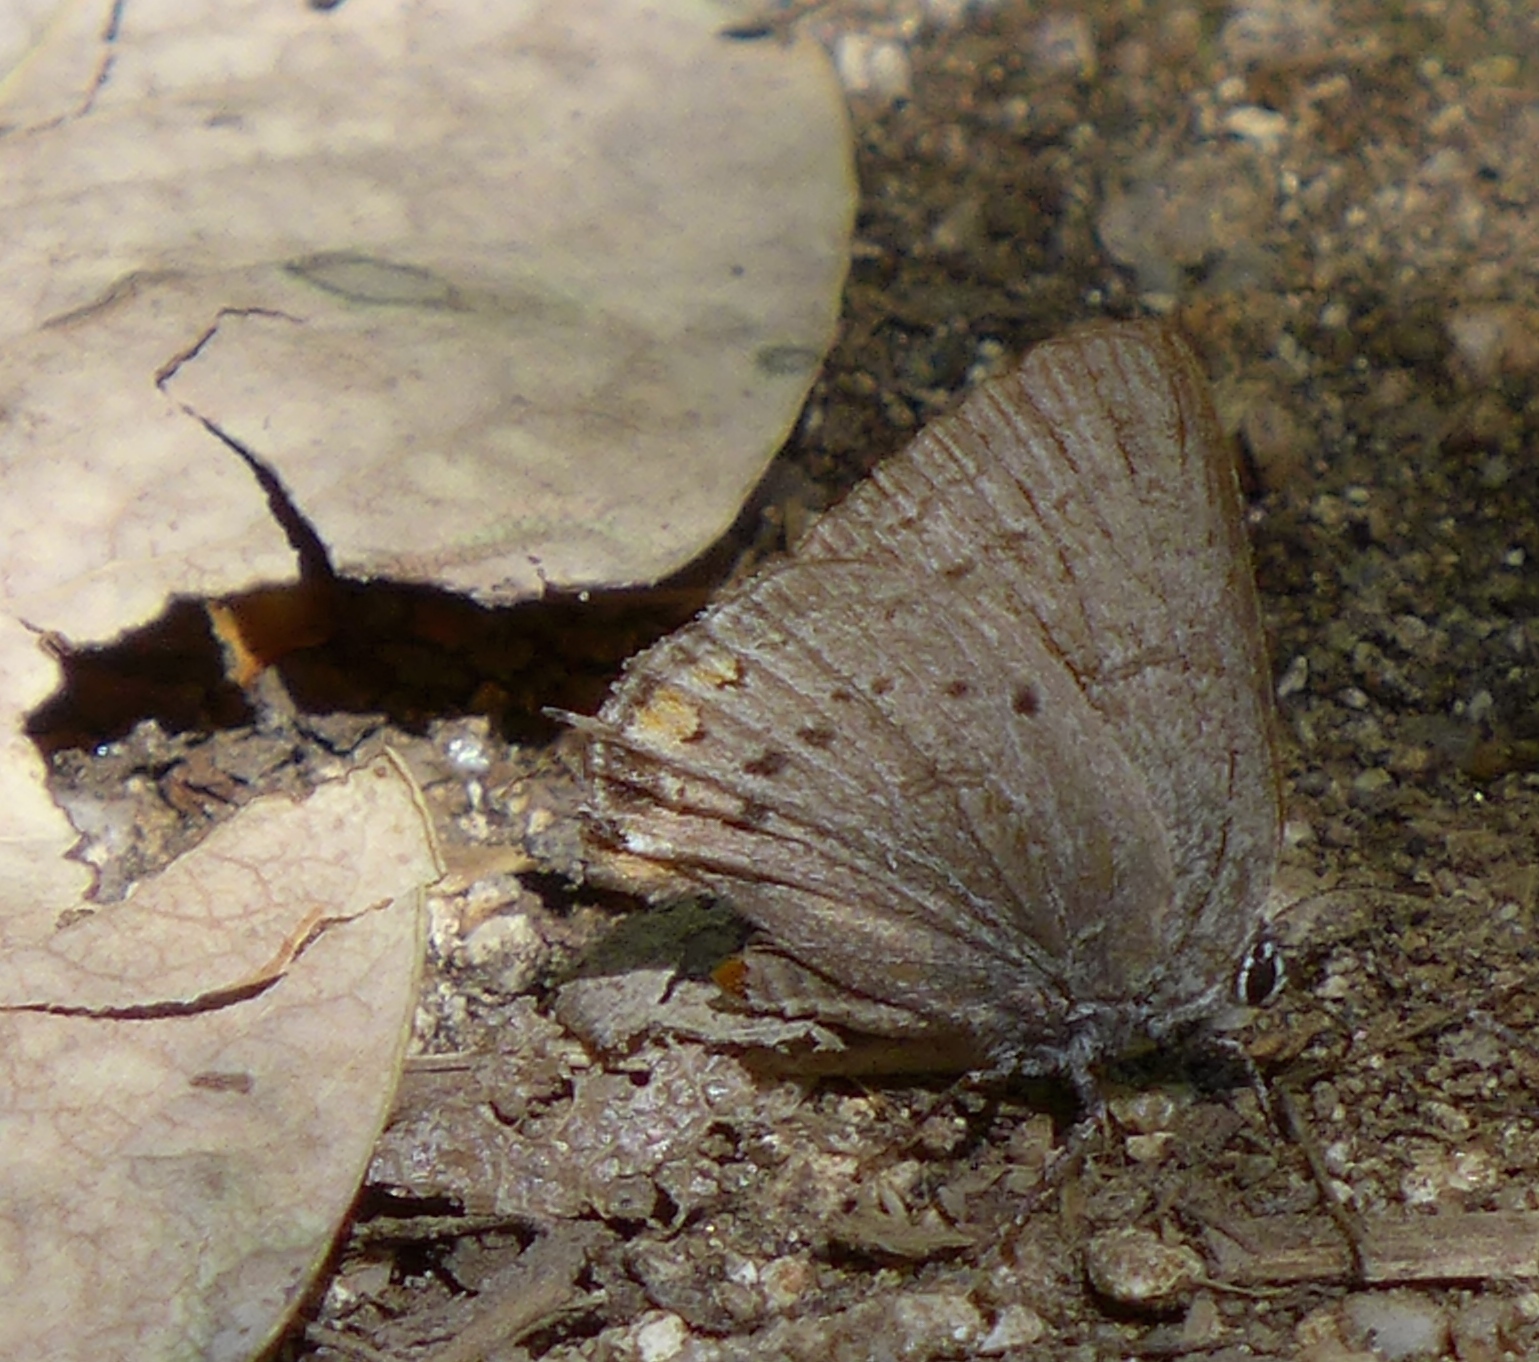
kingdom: Animalia
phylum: Arthropoda
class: Insecta
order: Lepidoptera
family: Lycaenidae
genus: Strymon
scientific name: Strymon acadica
